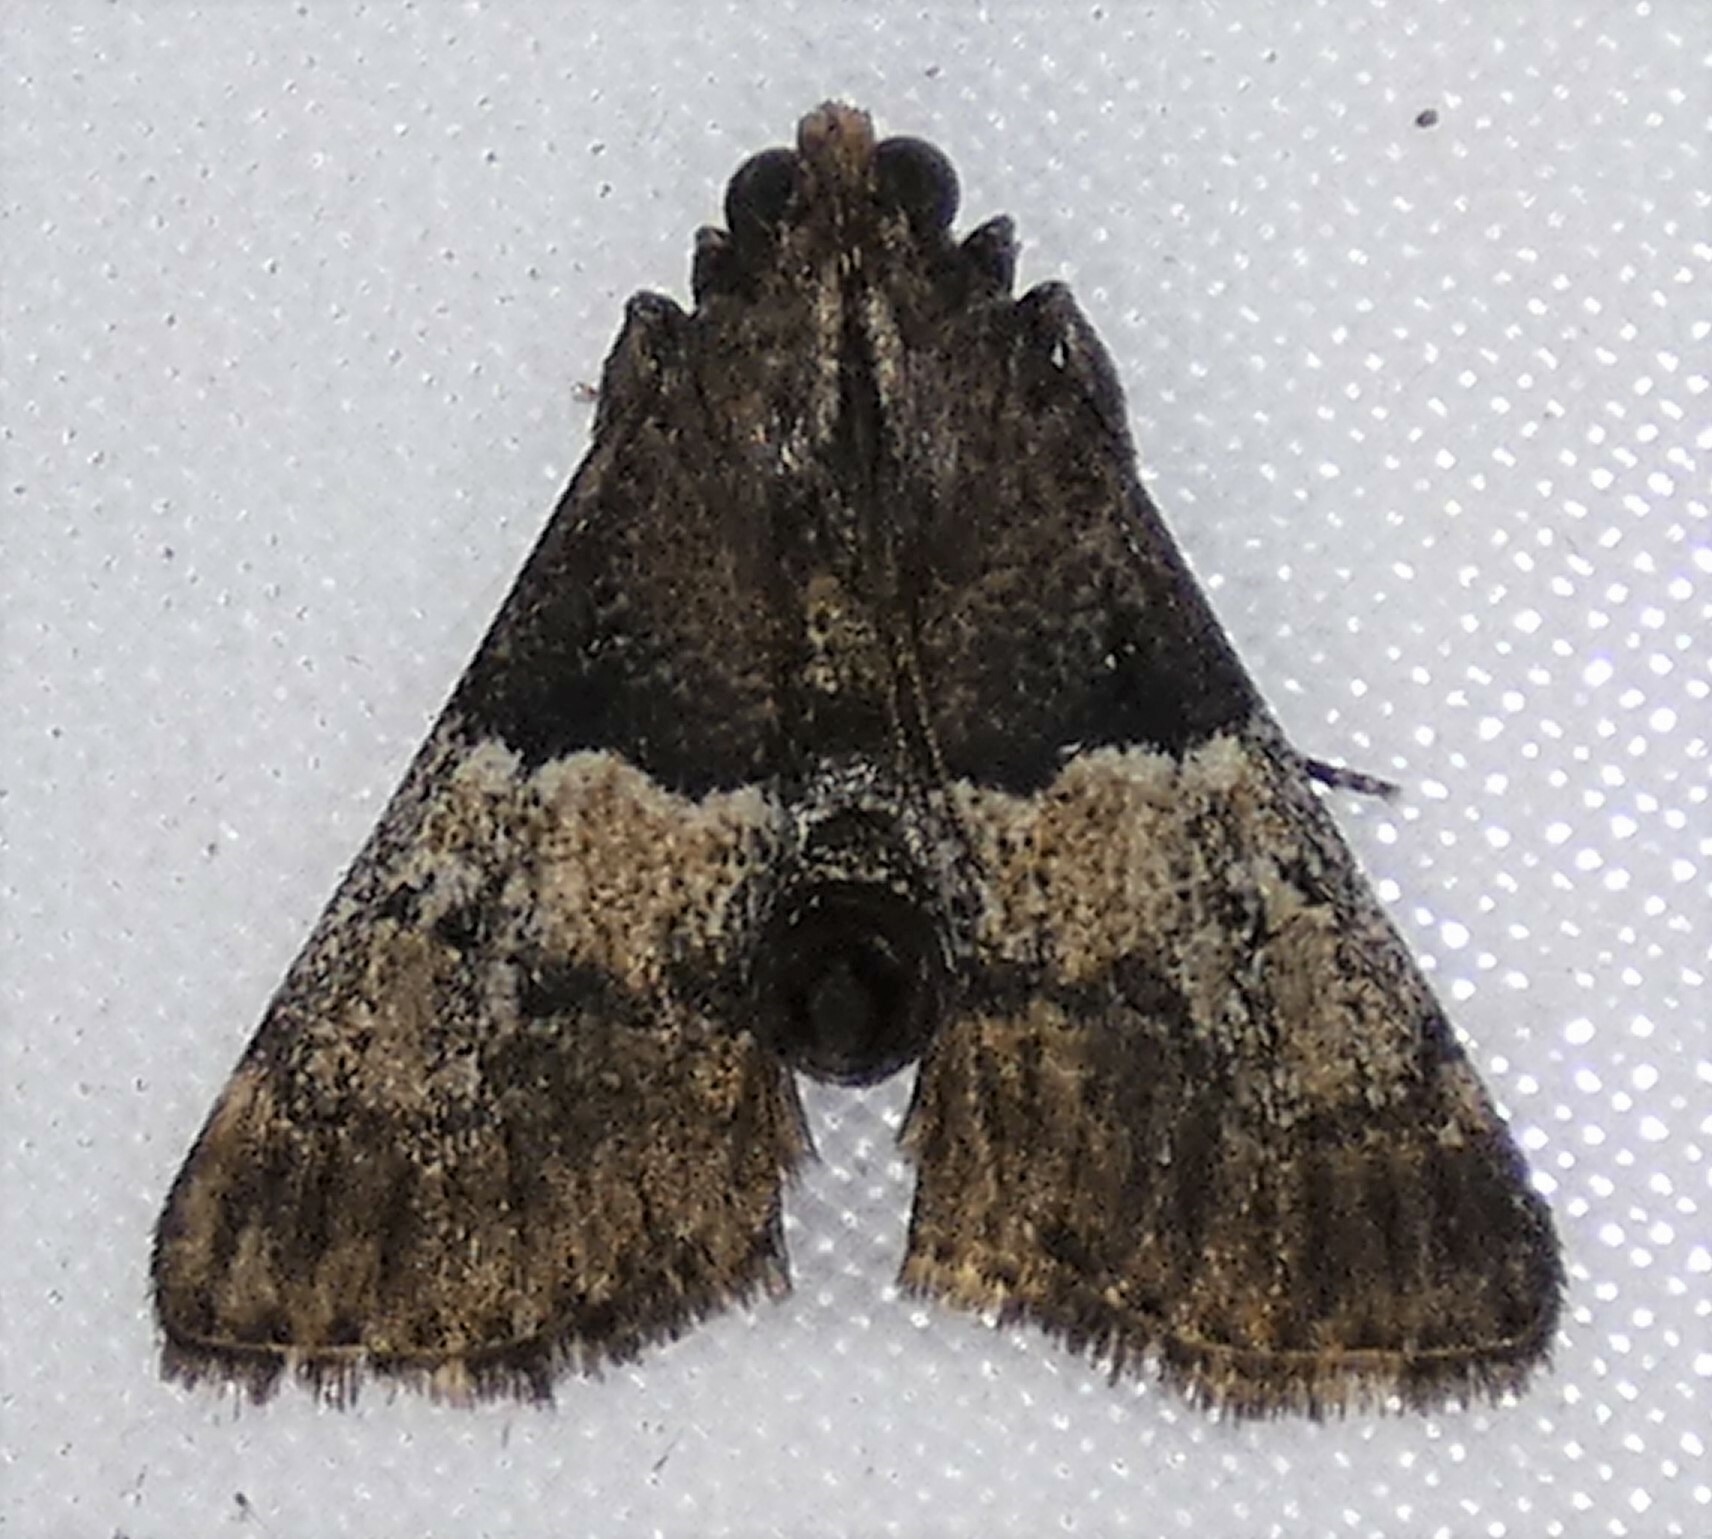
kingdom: Animalia
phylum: Arthropoda
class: Insecta
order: Lepidoptera
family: Pyralidae
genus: Macalla
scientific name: Macalla zelleri
